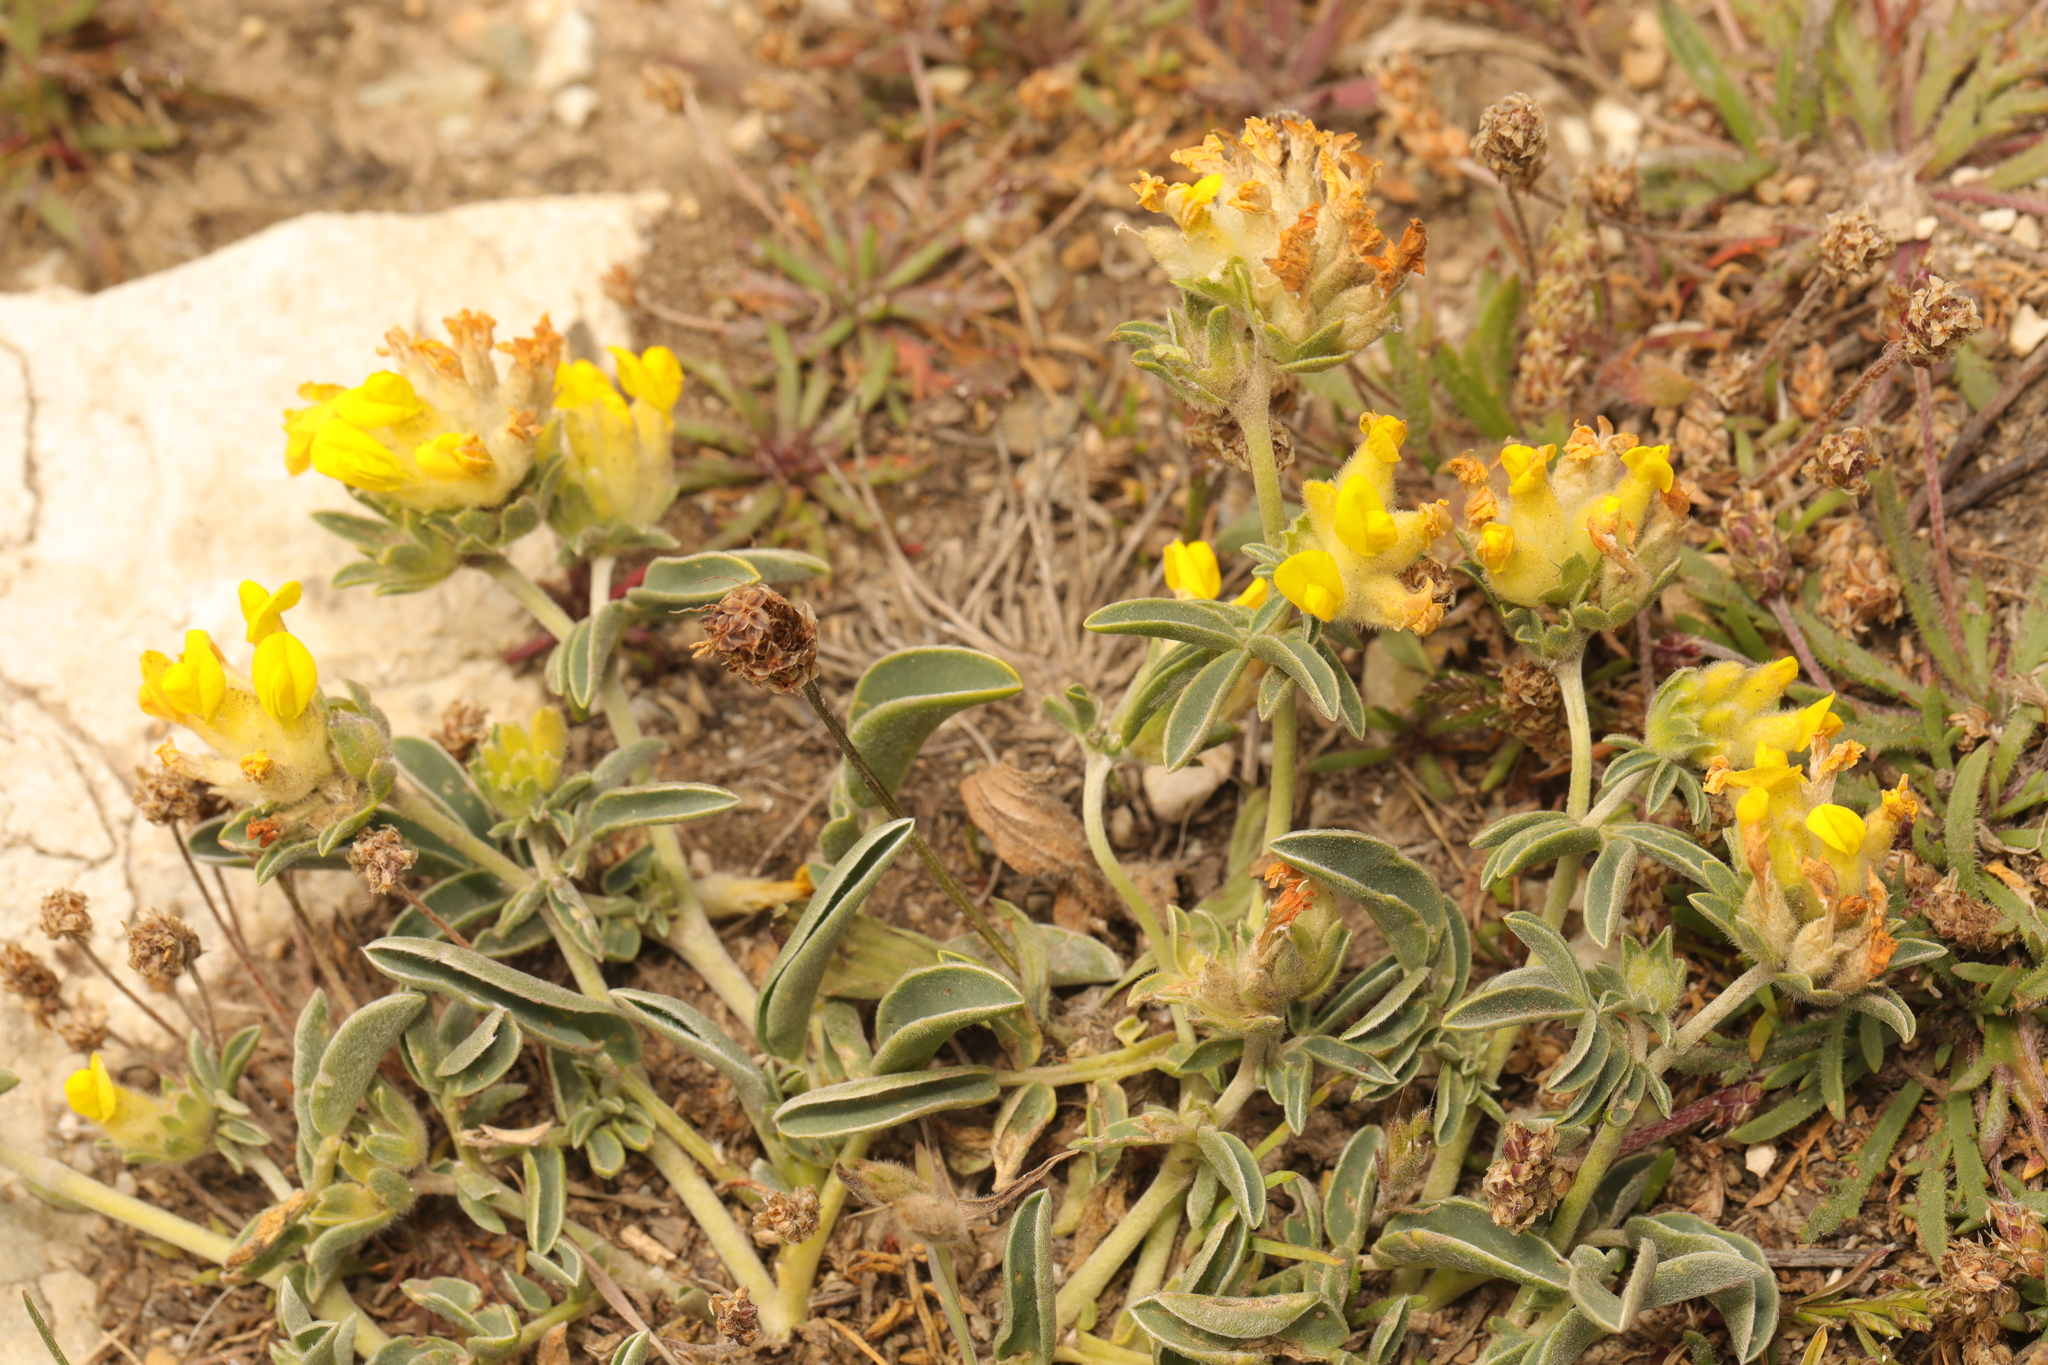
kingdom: Plantae
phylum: Tracheophyta
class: Magnoliopsida
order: Fabales
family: Fabaceae
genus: Anthyllis
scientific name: Anthyllis vulneraria
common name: Kidney vetch
